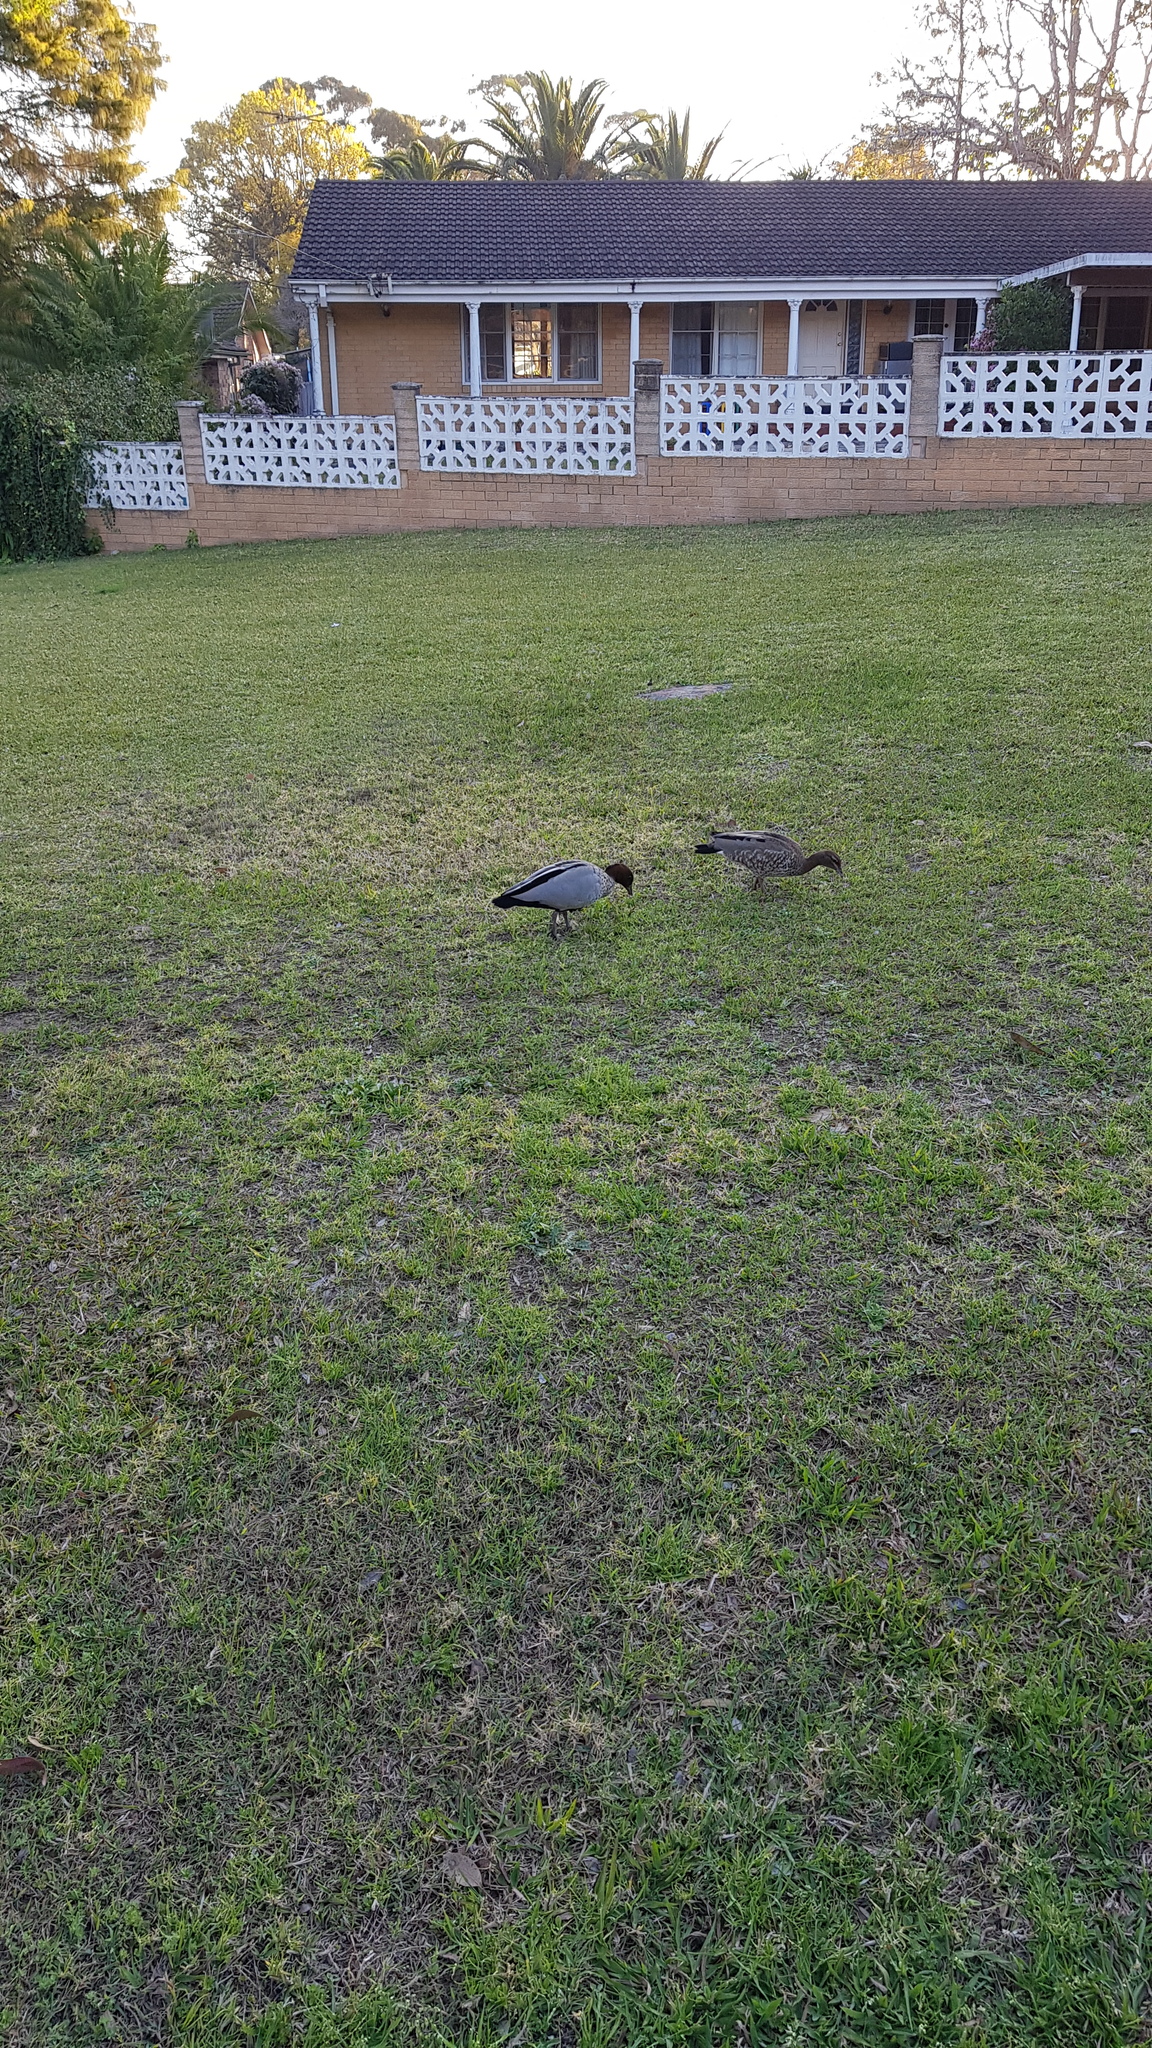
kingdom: Animalia
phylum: Chordata
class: Aves
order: Anseriformes
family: Anatidae
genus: Chenonetta
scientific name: Chenonetta jubata
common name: Maned duck
